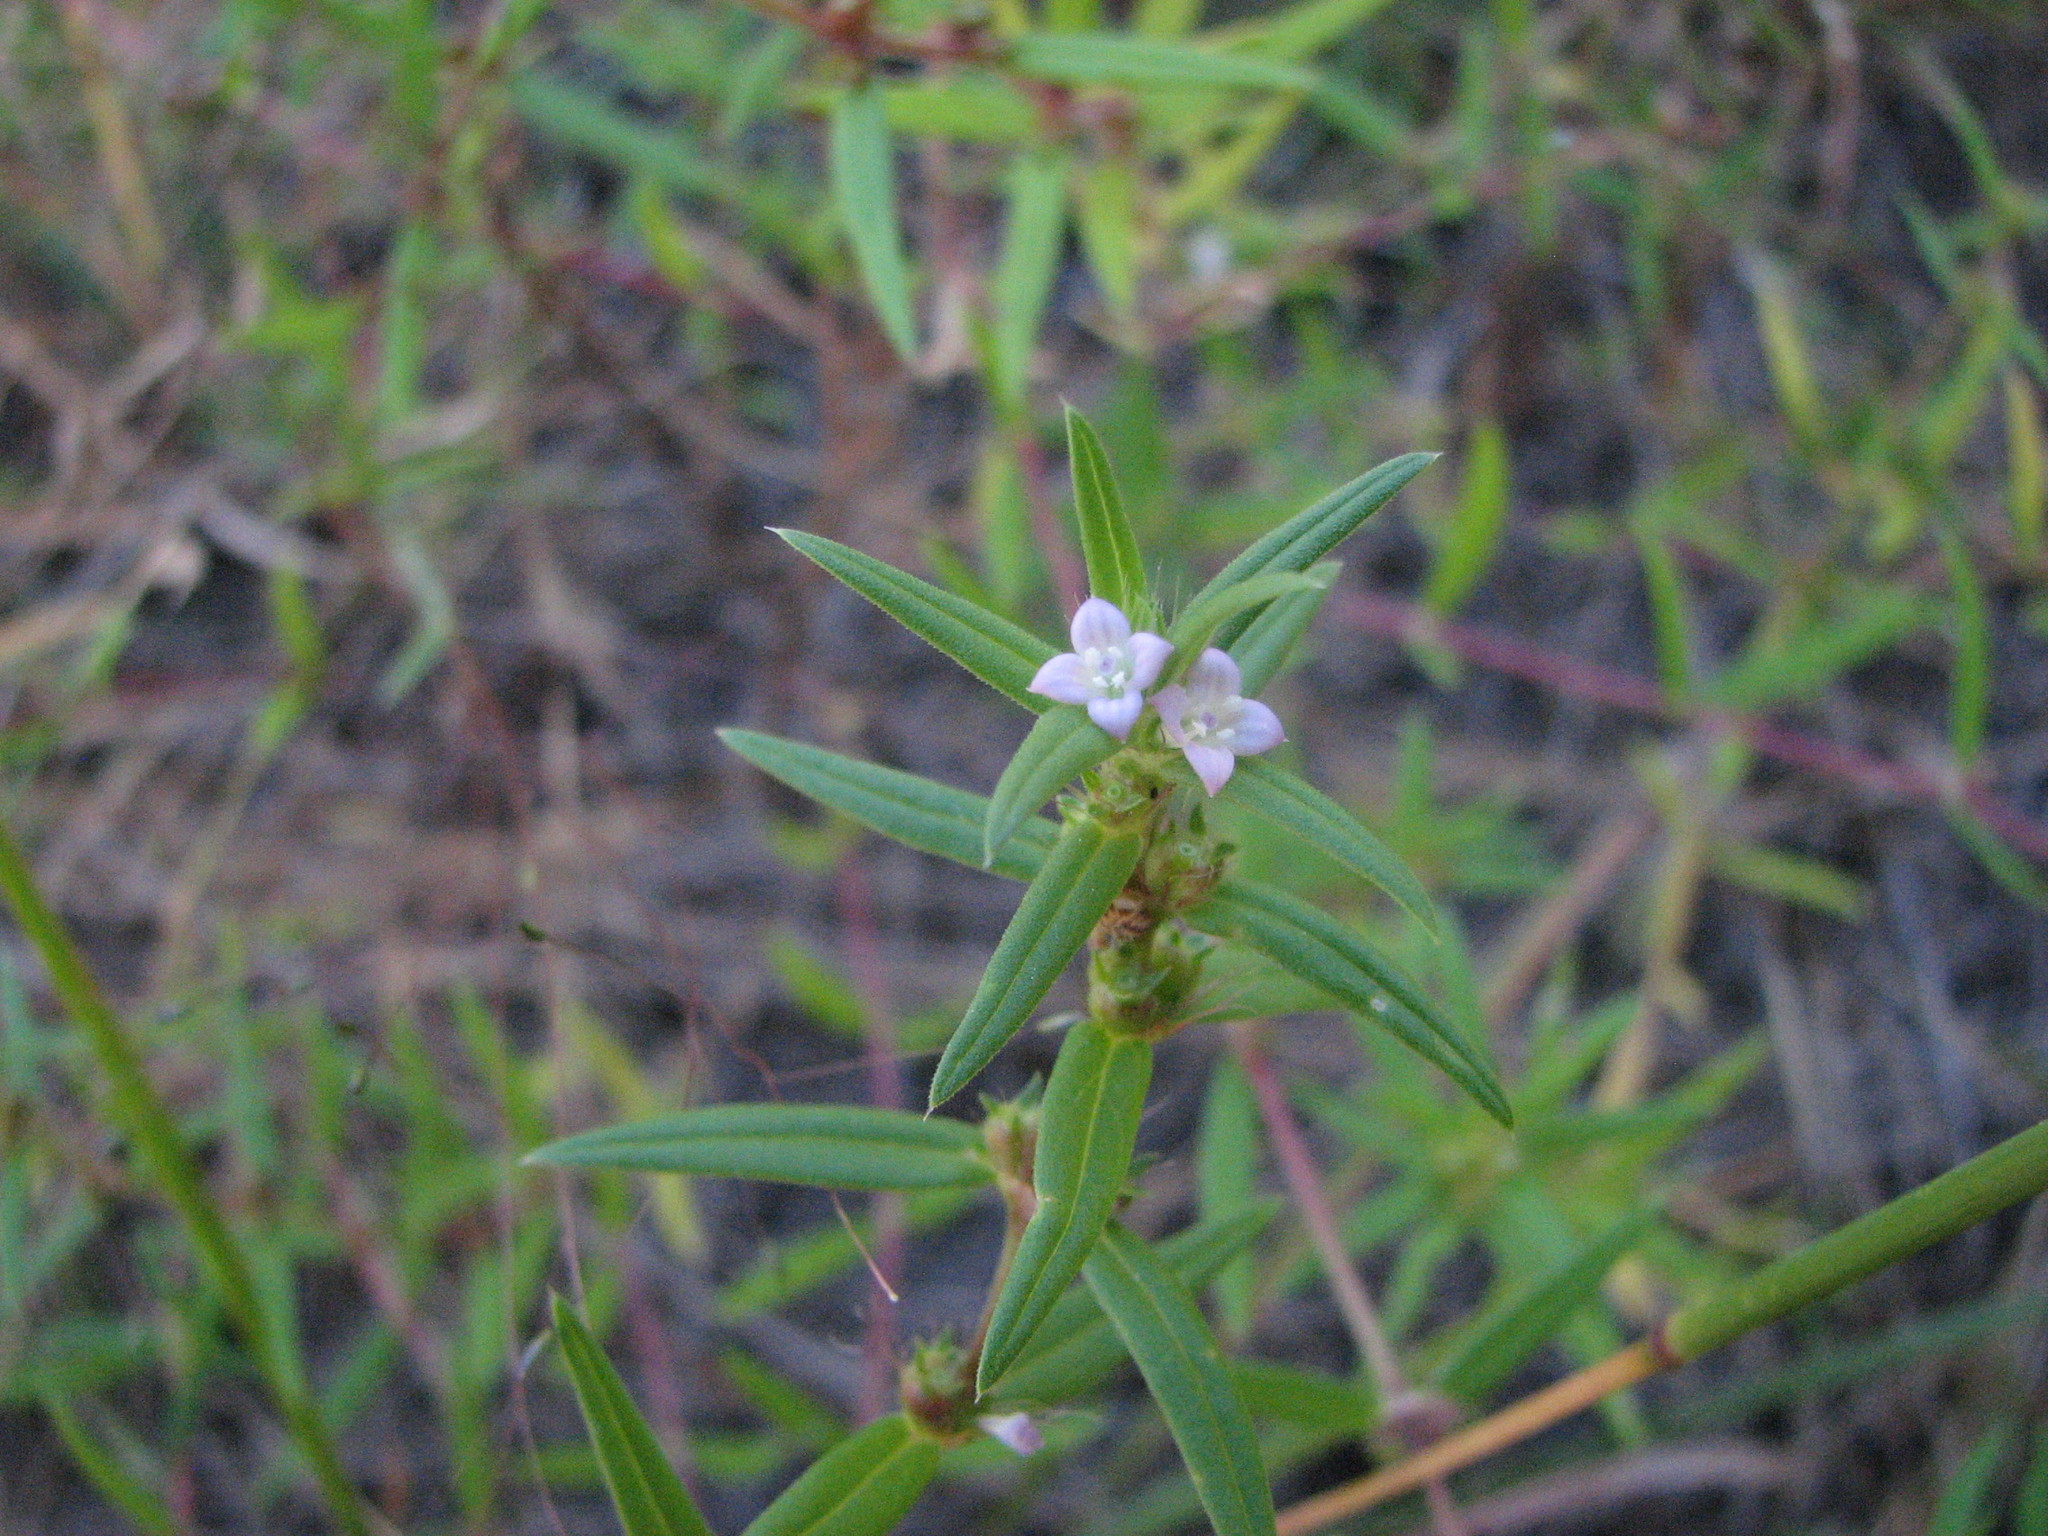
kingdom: Plantae
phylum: Tracheophyta
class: Magnoliopsida
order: Gentianales
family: Rubiaceae
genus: Hexasepalum
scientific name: Hexasepalum teres
